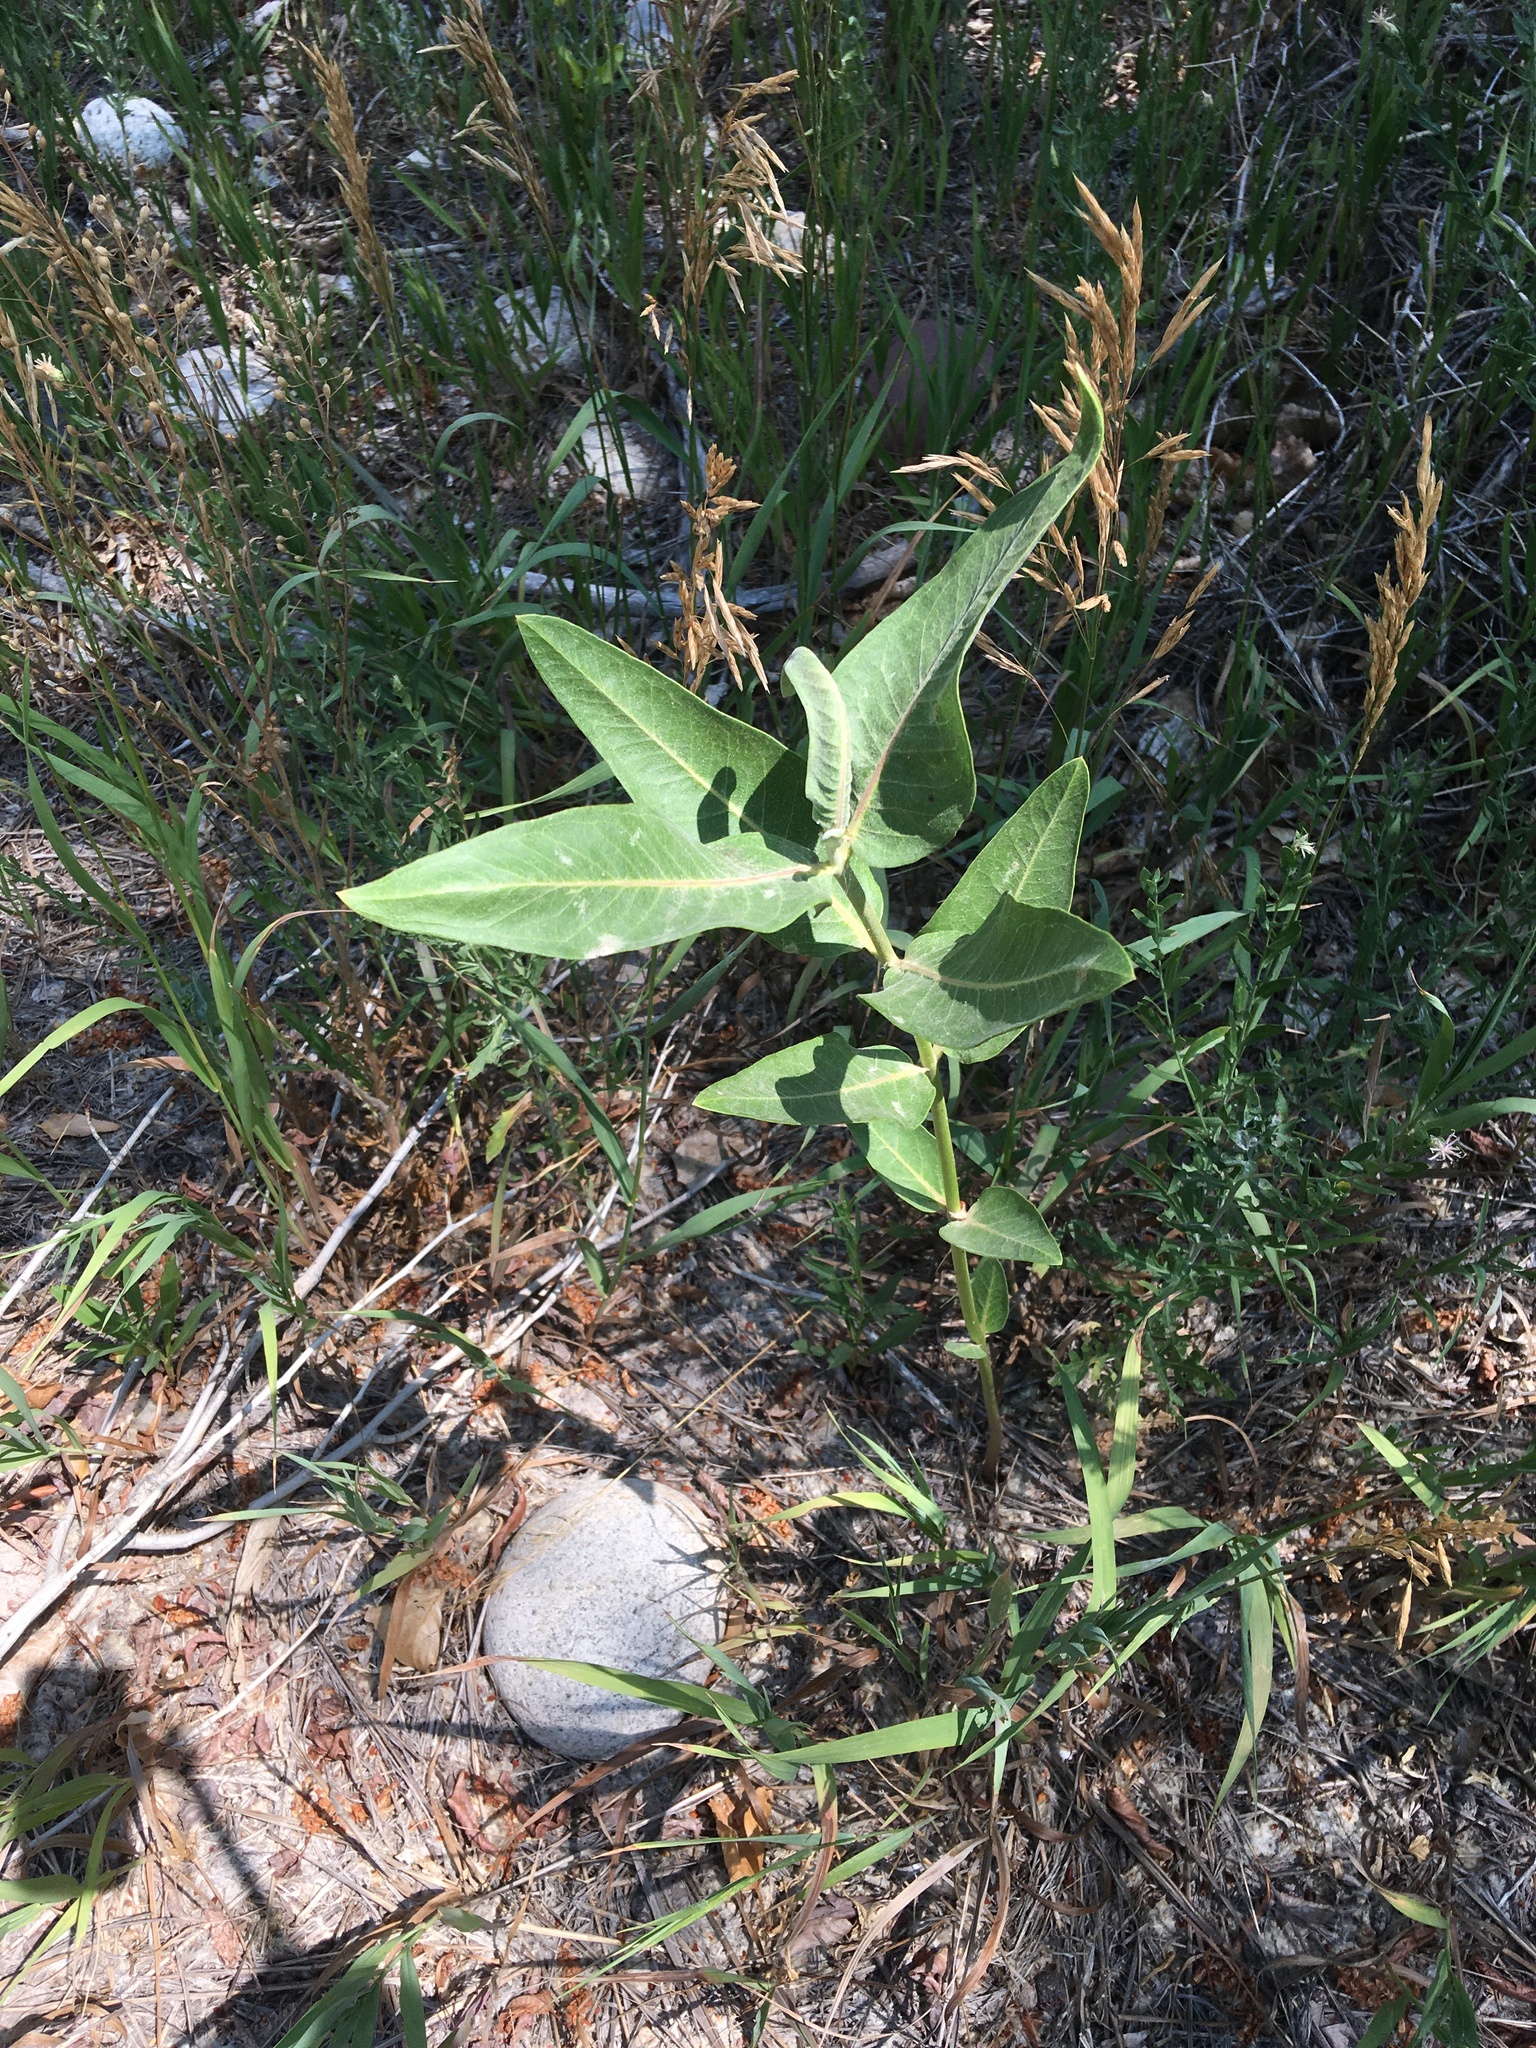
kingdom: Plantae
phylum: Tracheophyta
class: Magnoliopsida
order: Gentianales
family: Apocynaceae
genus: Asclepias
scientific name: Asclepias speciosa
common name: Showy milkweed
